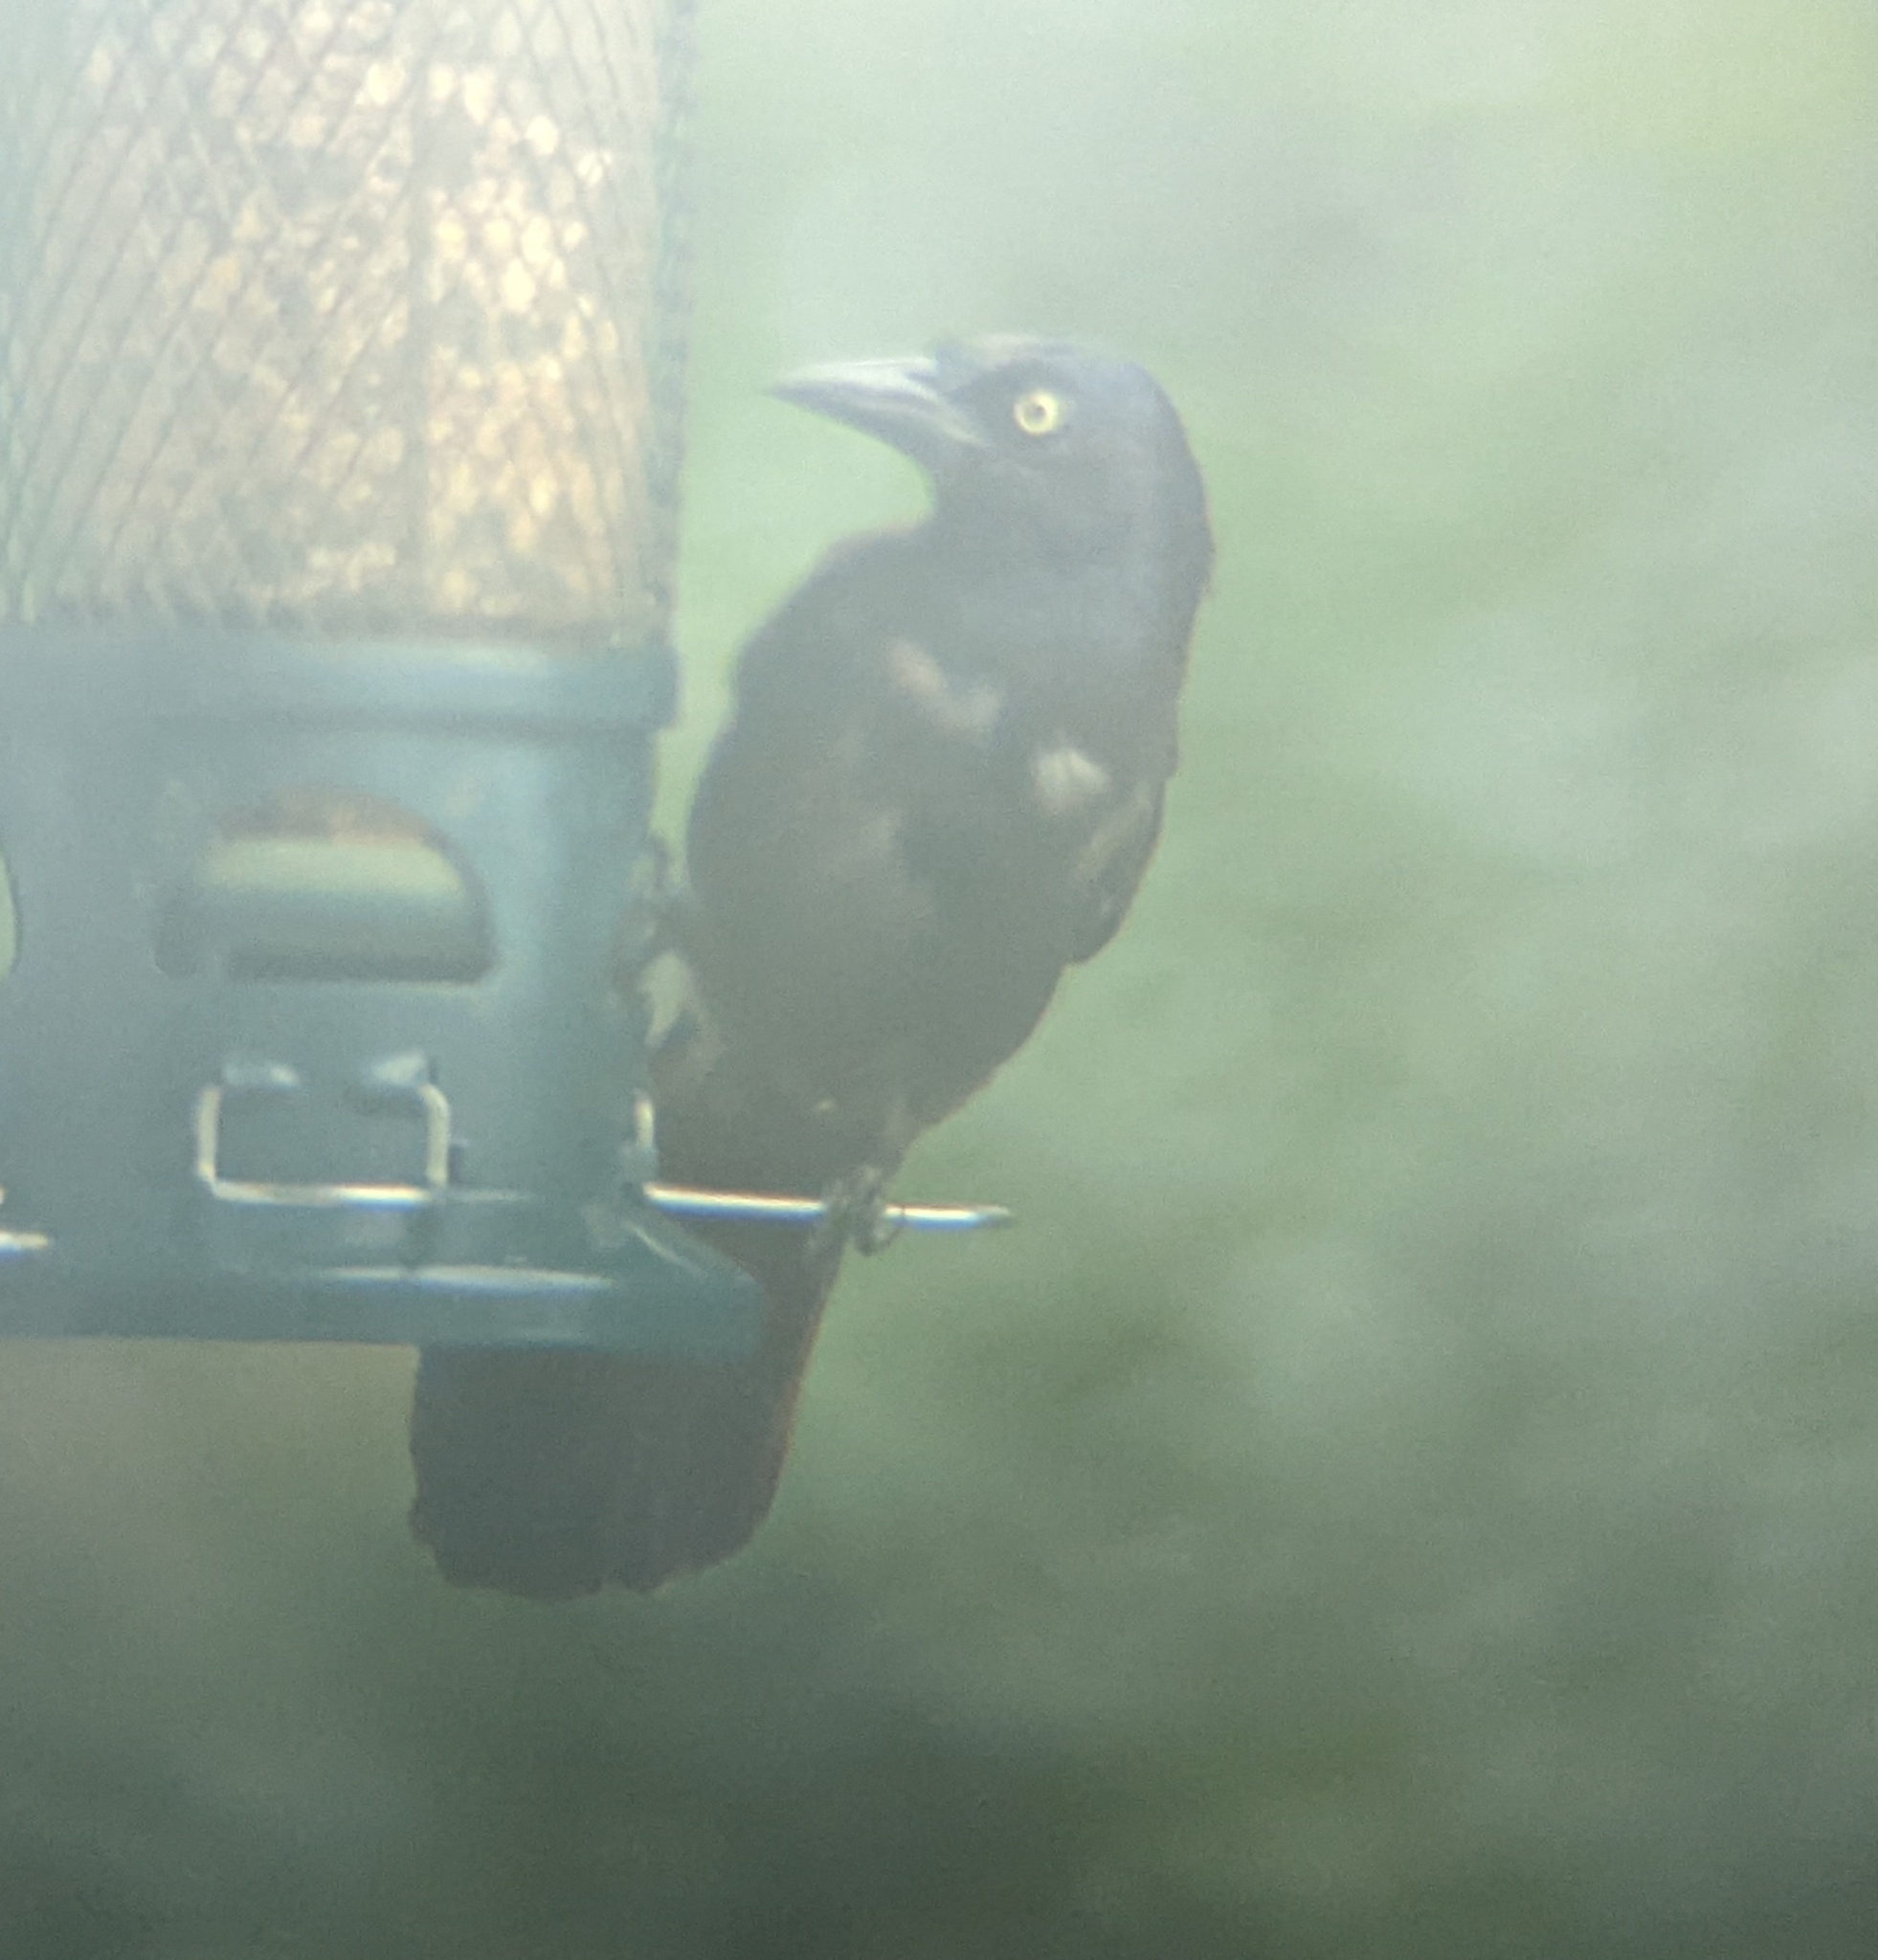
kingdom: Animalia
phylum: Chordata
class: Aves
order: Passeriformes
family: Icteridae
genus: Quiscalus
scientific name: Quiscalus quiscula
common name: Common grackle
